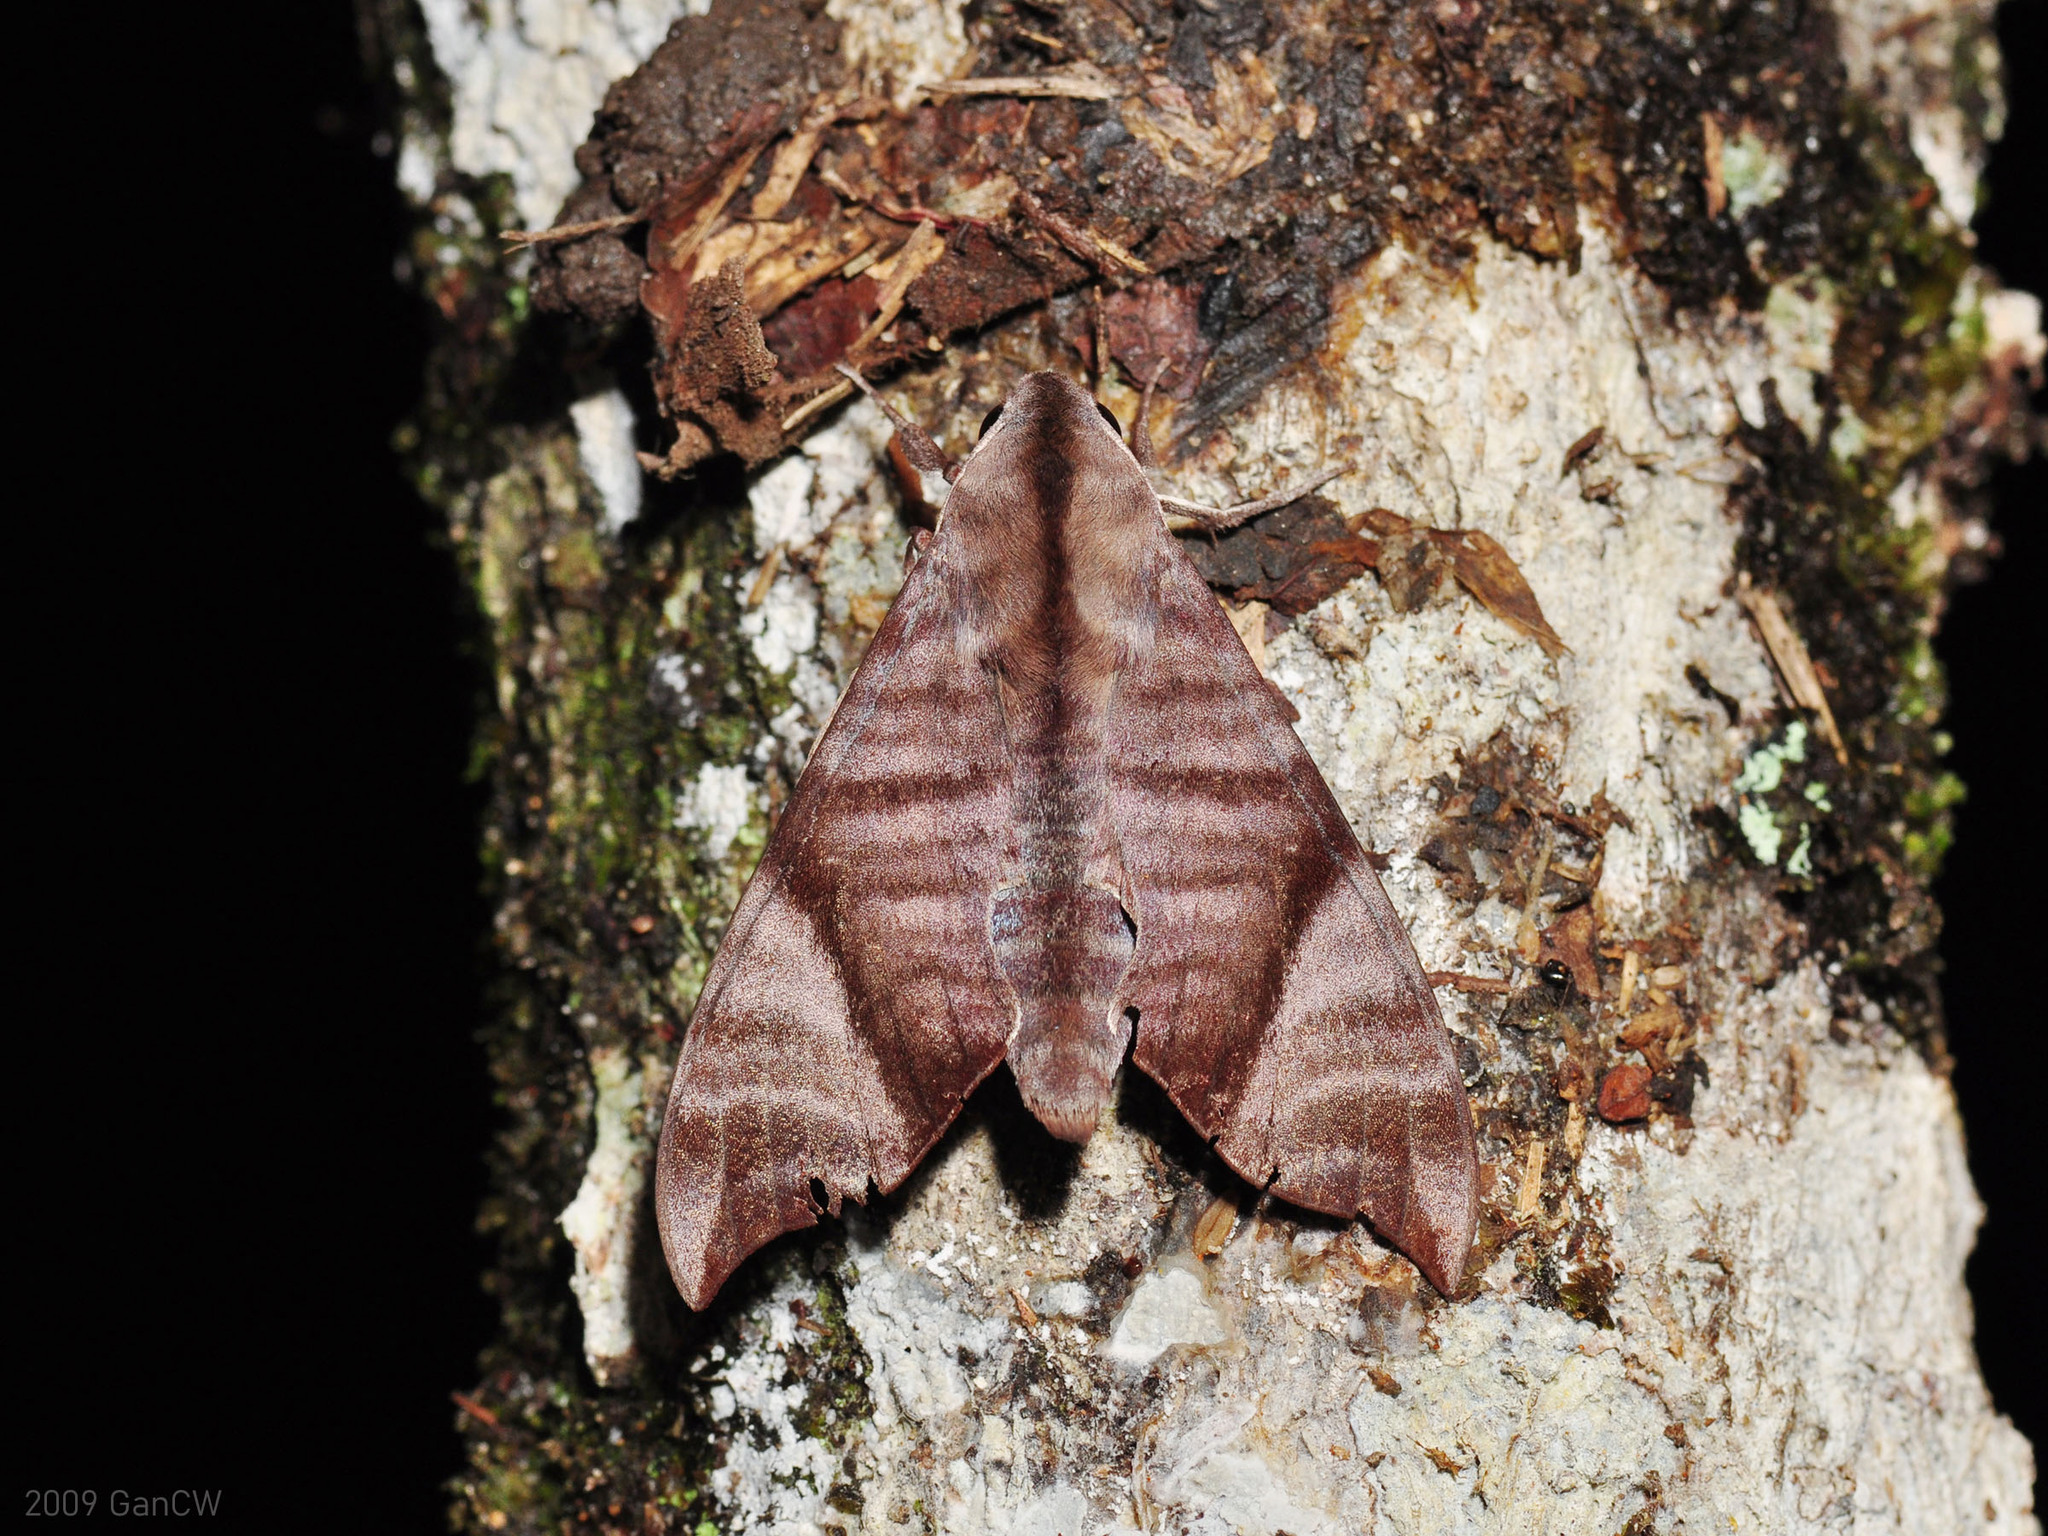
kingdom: Animalia
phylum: Arthropoda
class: Insecta
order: Lepidoptera
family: Sphingidae
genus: Dahira
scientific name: Dahira falcata
